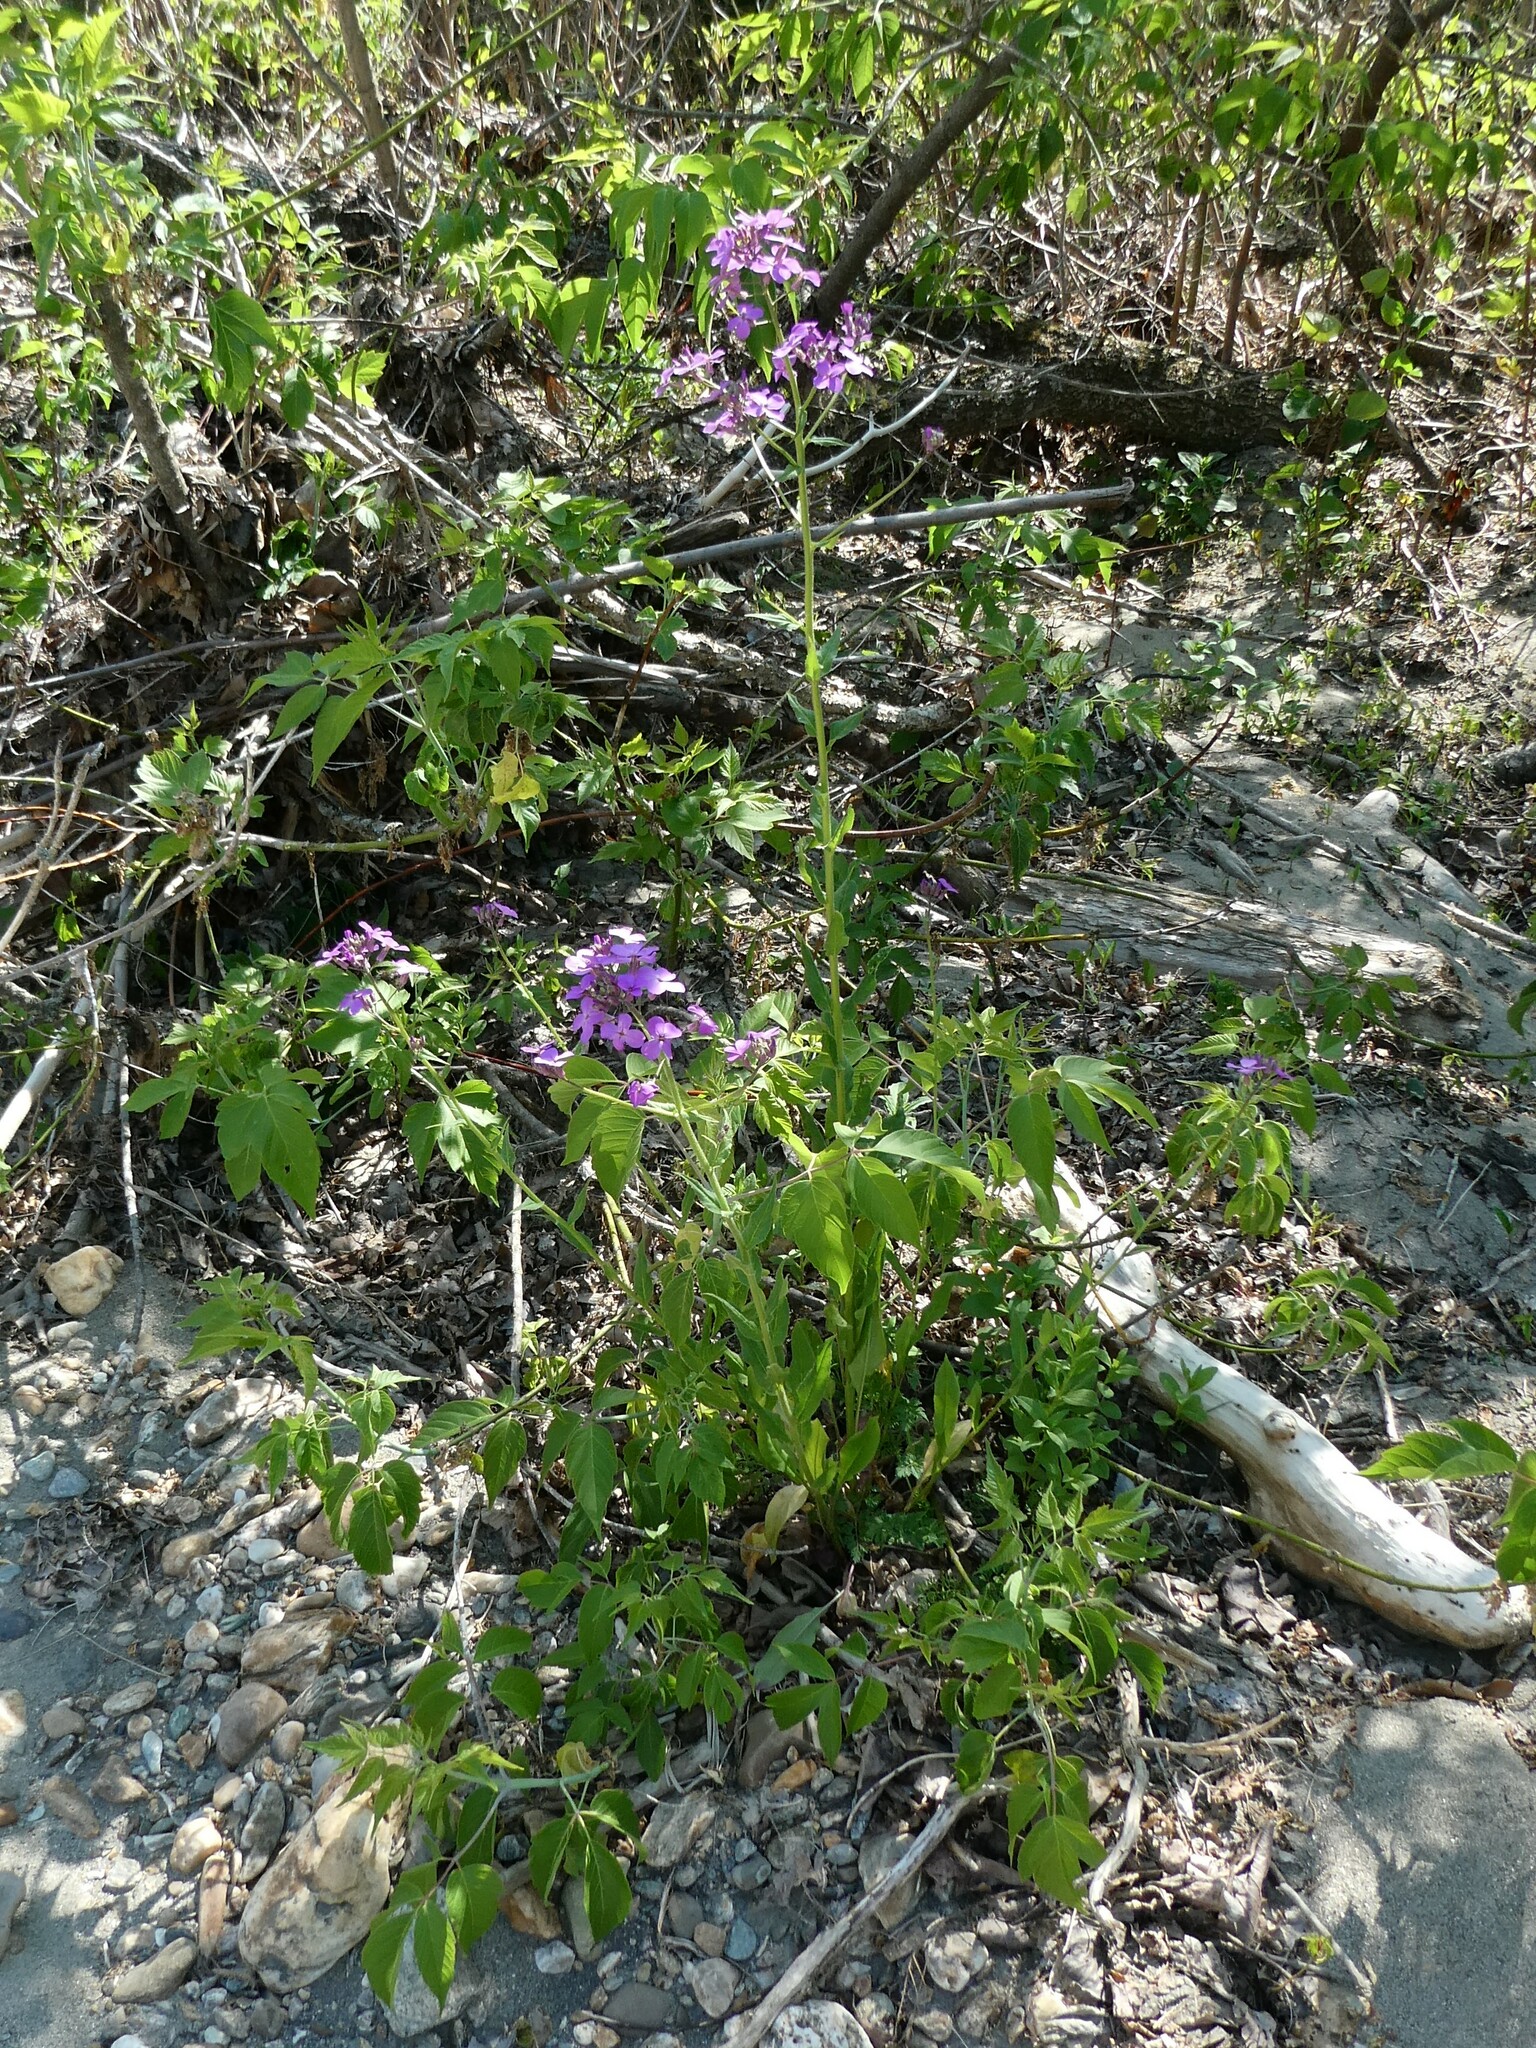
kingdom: Plantae
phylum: Tracheophyta
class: Magnoliopsida
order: Brassicales
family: Brassicaceae
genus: Hesperis
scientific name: Hesperis matronalis
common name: Dame's-violet
